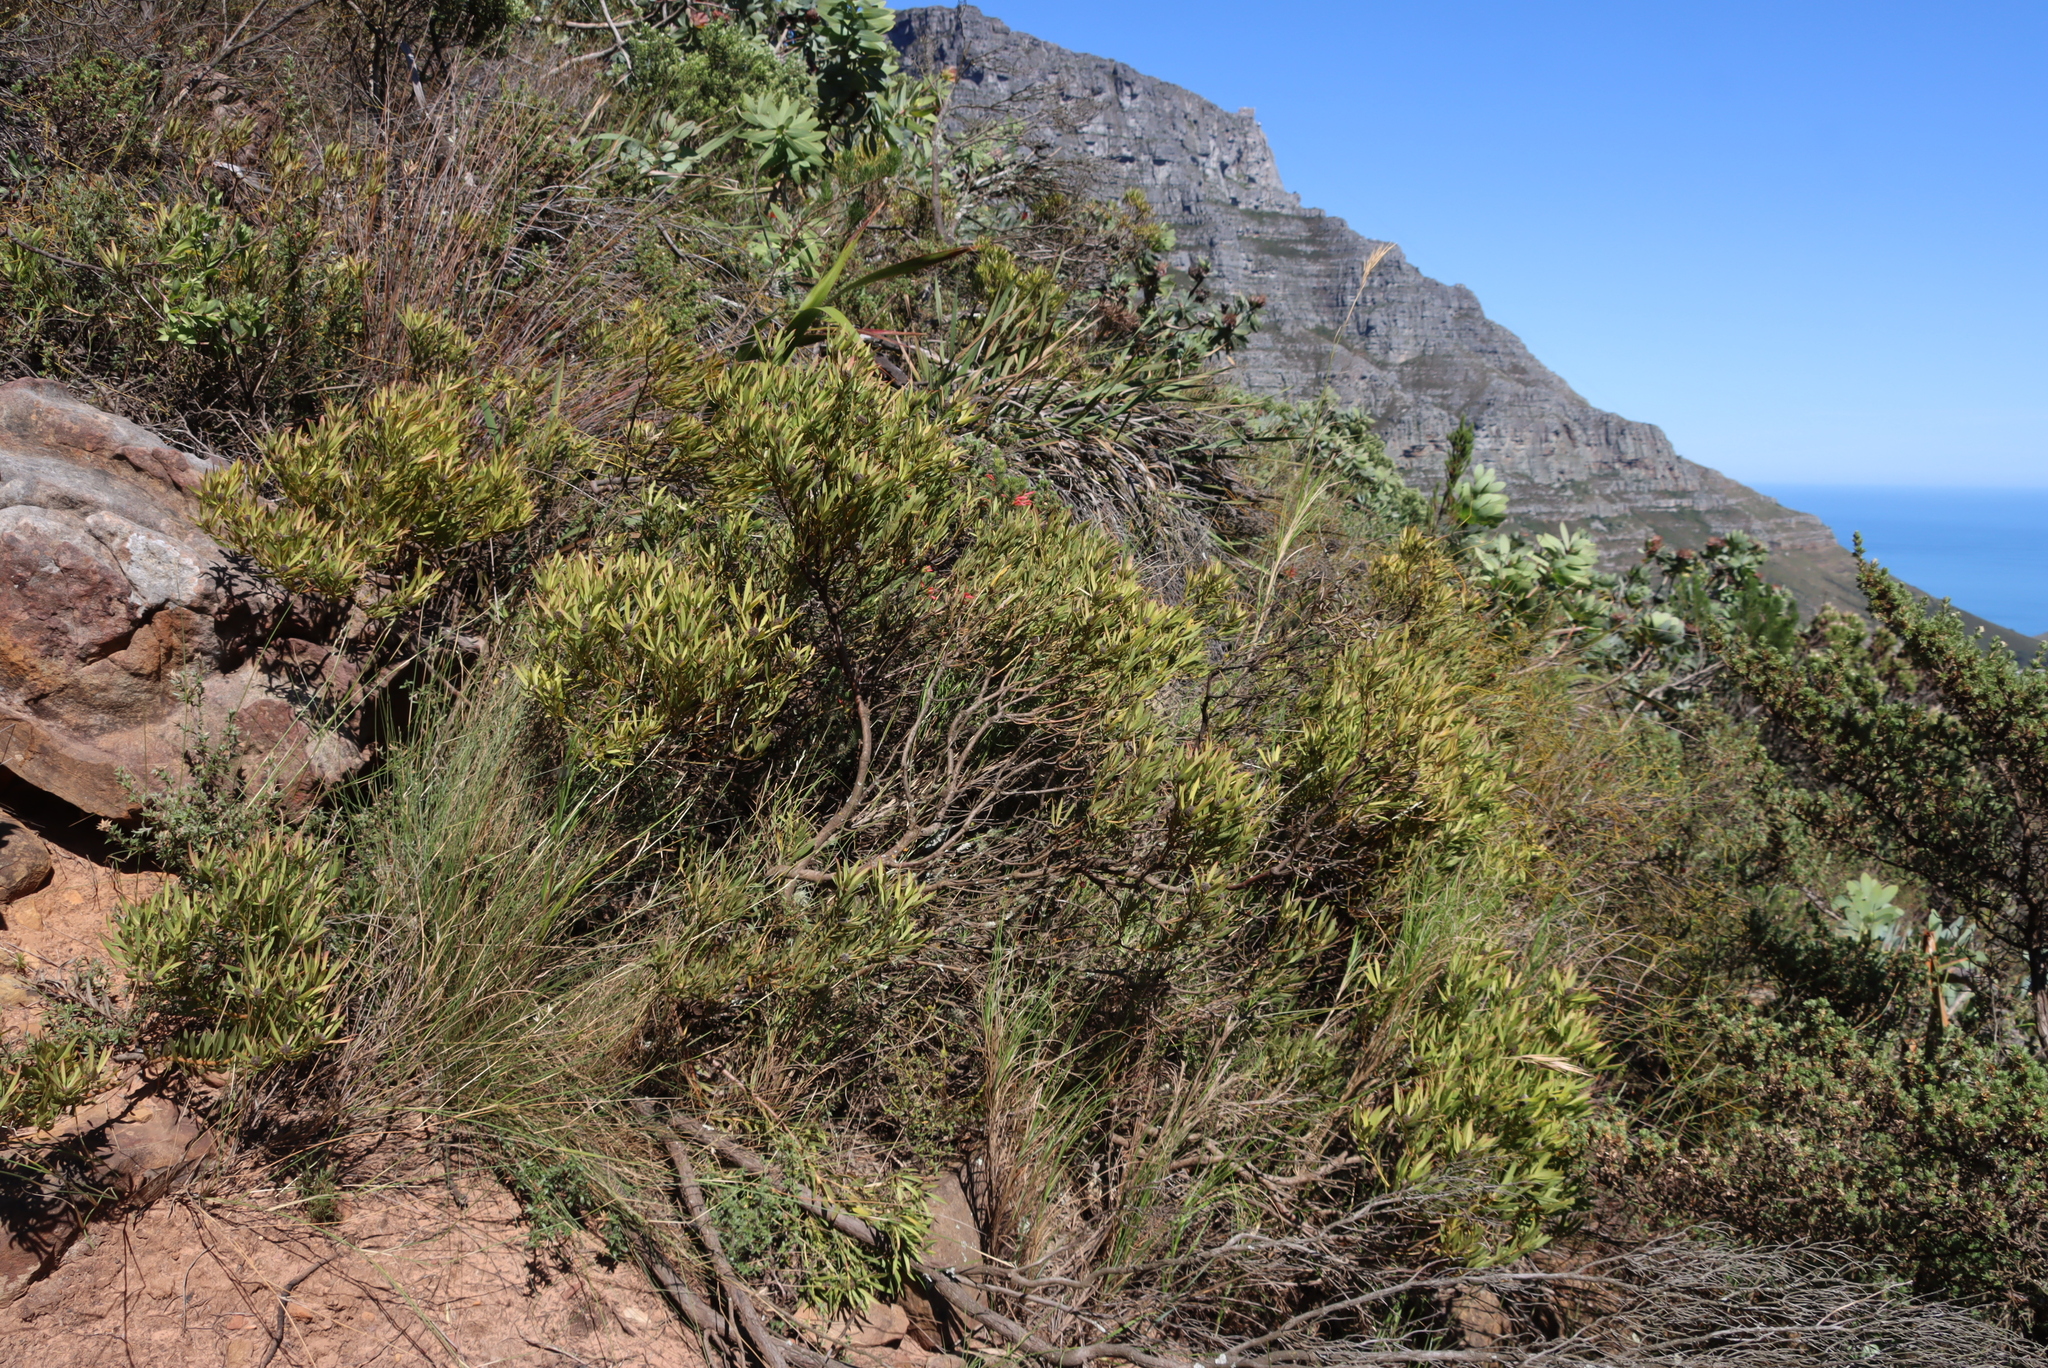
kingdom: Plantae
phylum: Tracheophyta
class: Magnoliopsida
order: Proteales
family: Proteaceae
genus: Leucadendron
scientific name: Leucadendron salignum
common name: Common sunshine conebush
